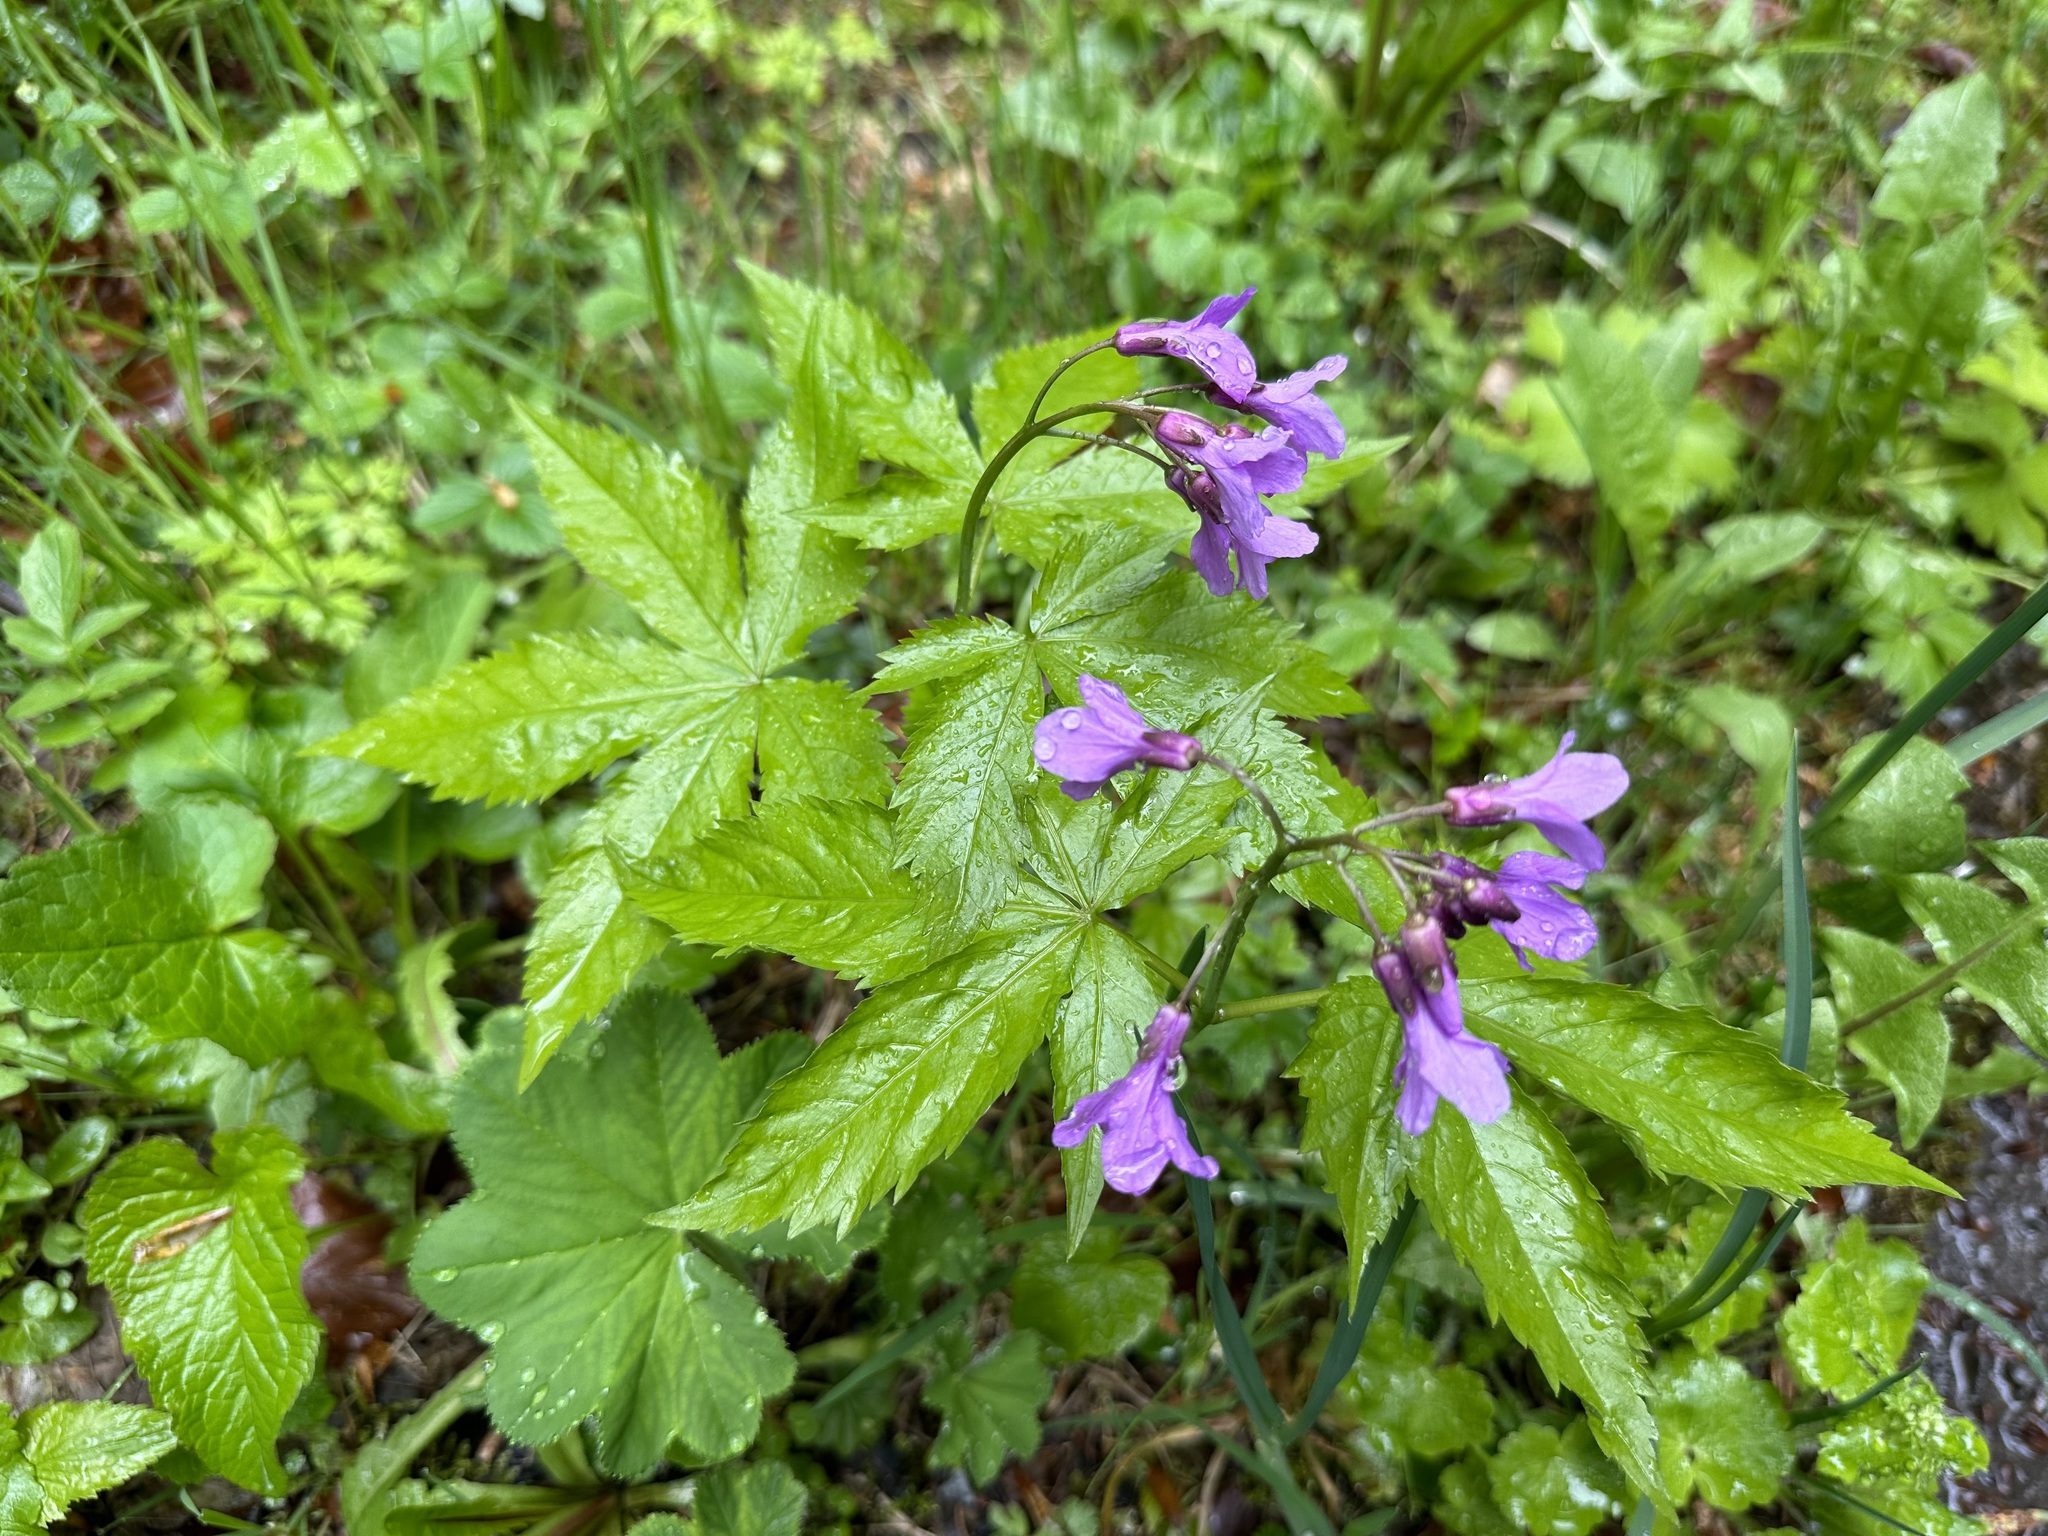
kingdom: Plantae
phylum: Tracheophyta
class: Magnoliopsida
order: Brassicales
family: Brassicaceae
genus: Cardamine
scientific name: Cardamine pentaphyllos
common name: Five-leaflet bitter-cress
